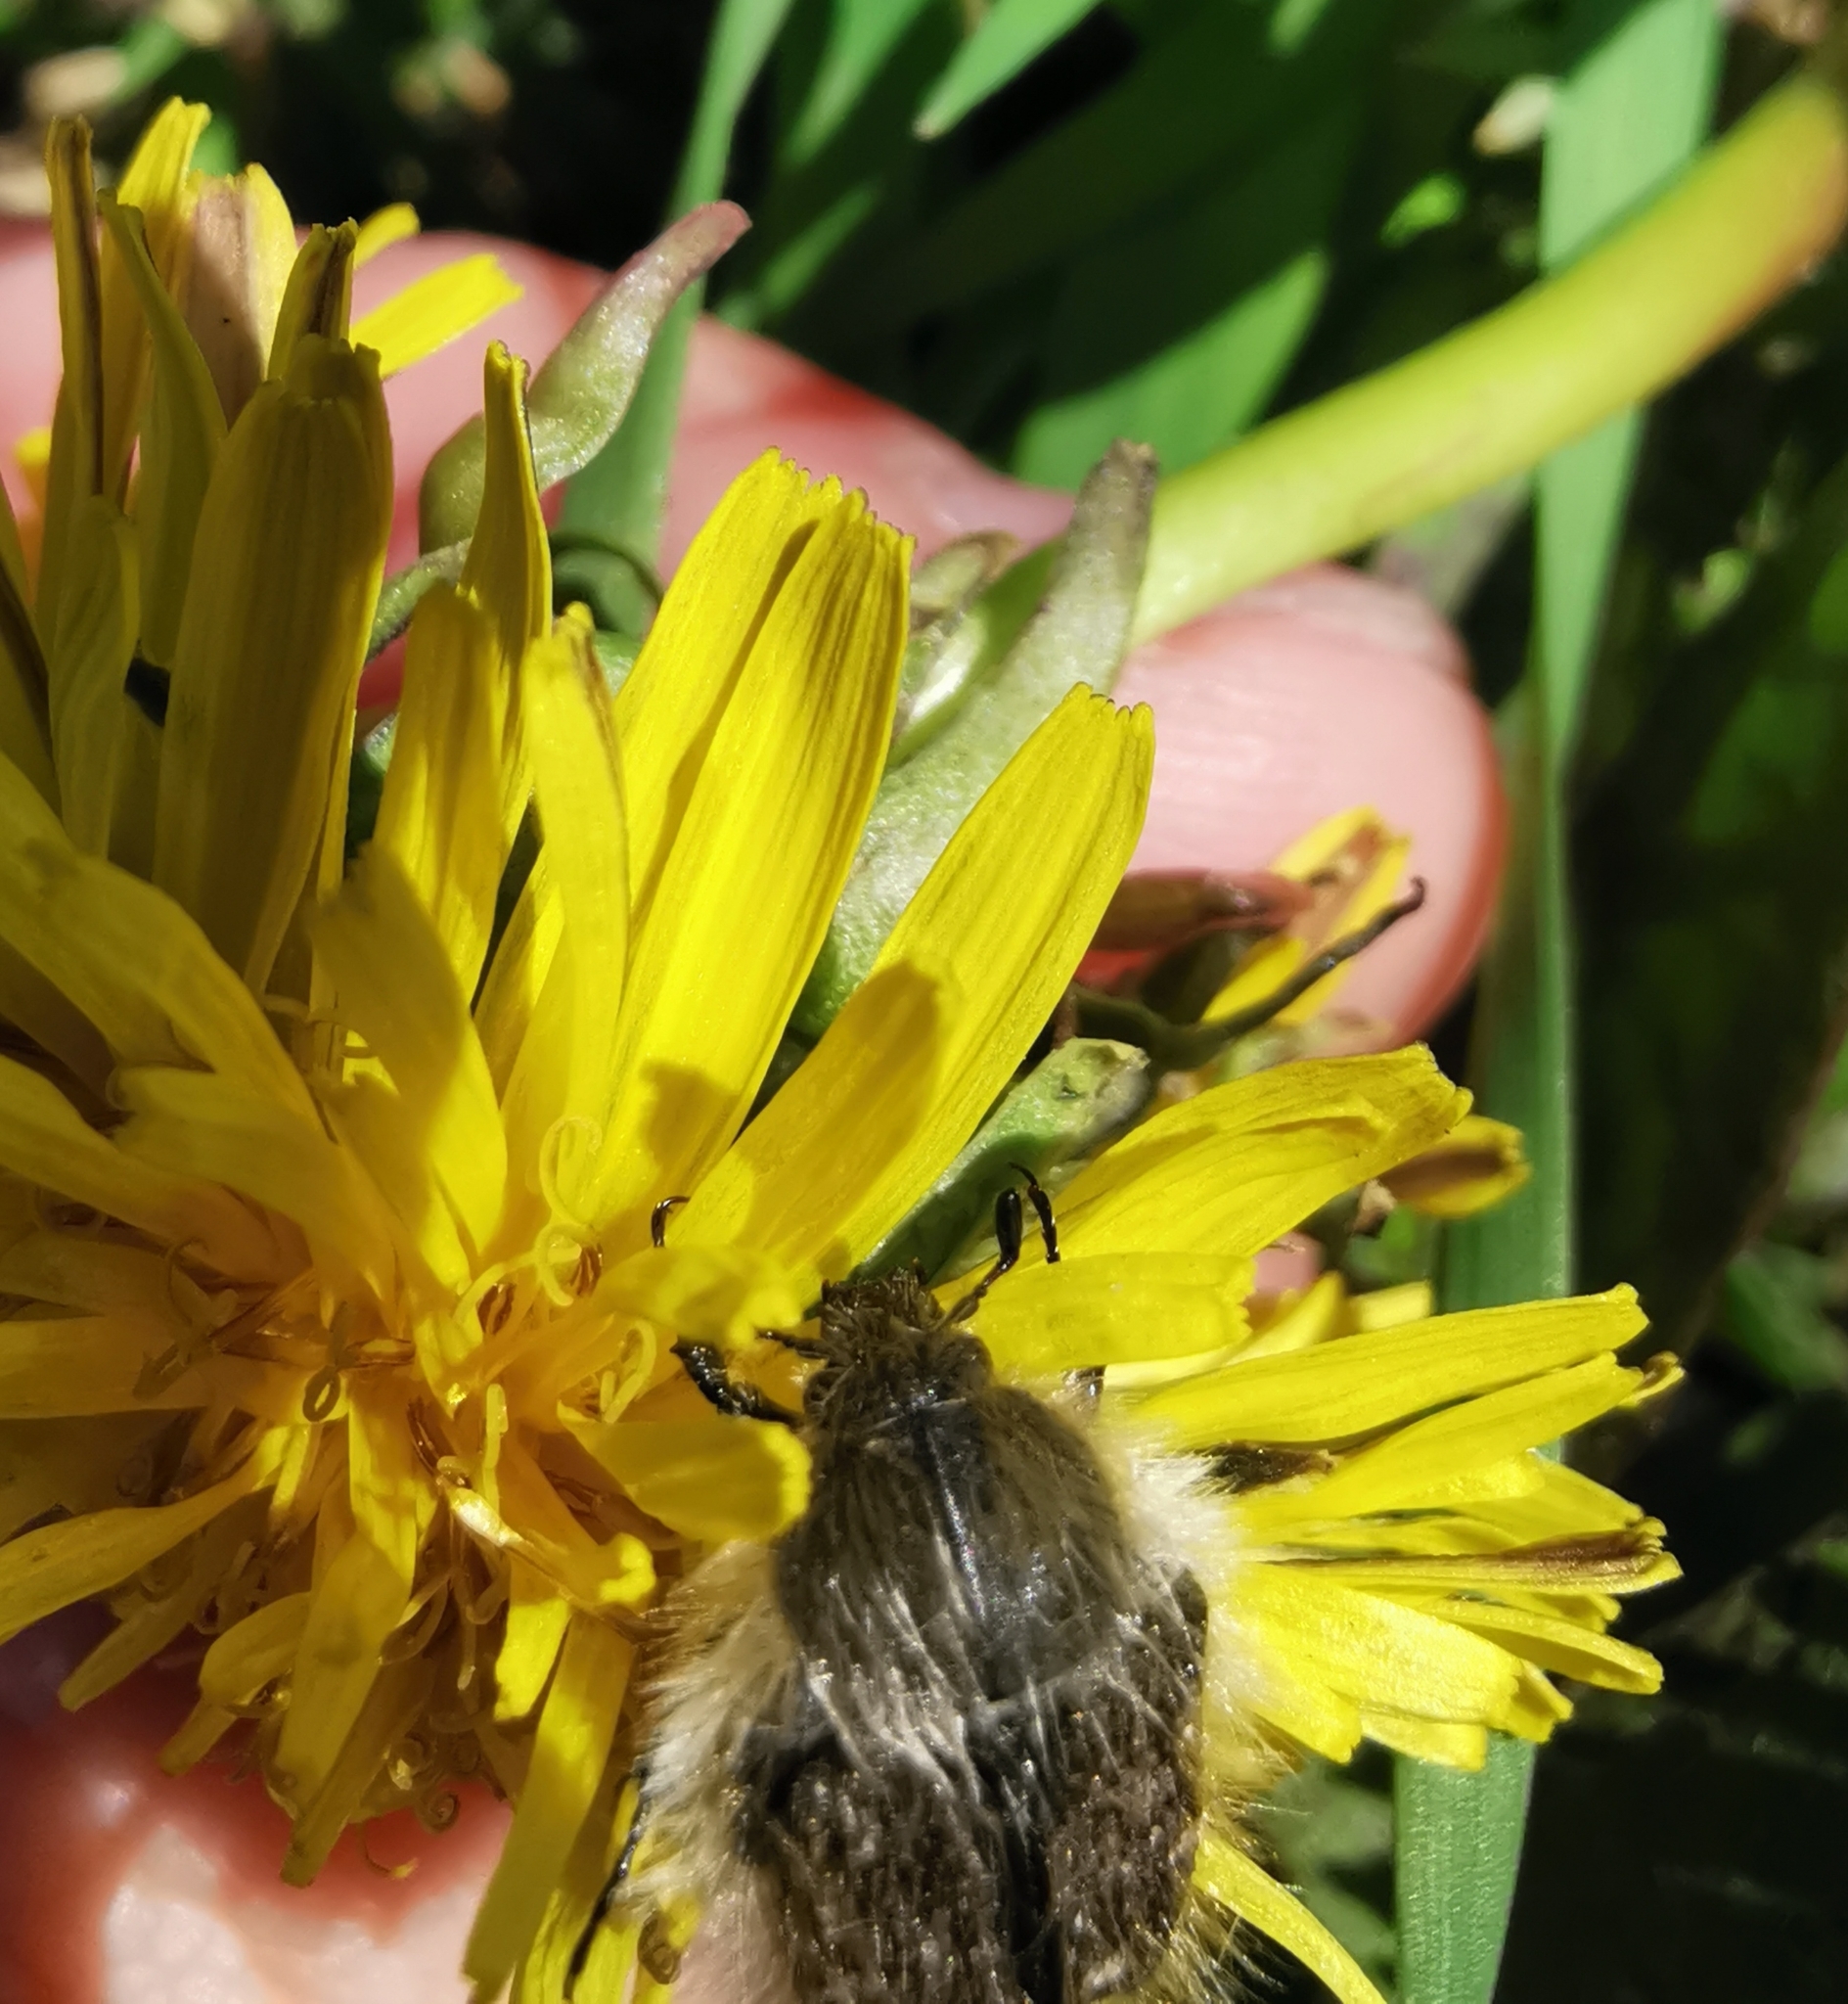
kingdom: Animalia
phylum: Arthropoda
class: Insecta
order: Coleoptera
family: Scarabaeidae
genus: Tropinota
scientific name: Tropinota hirta
